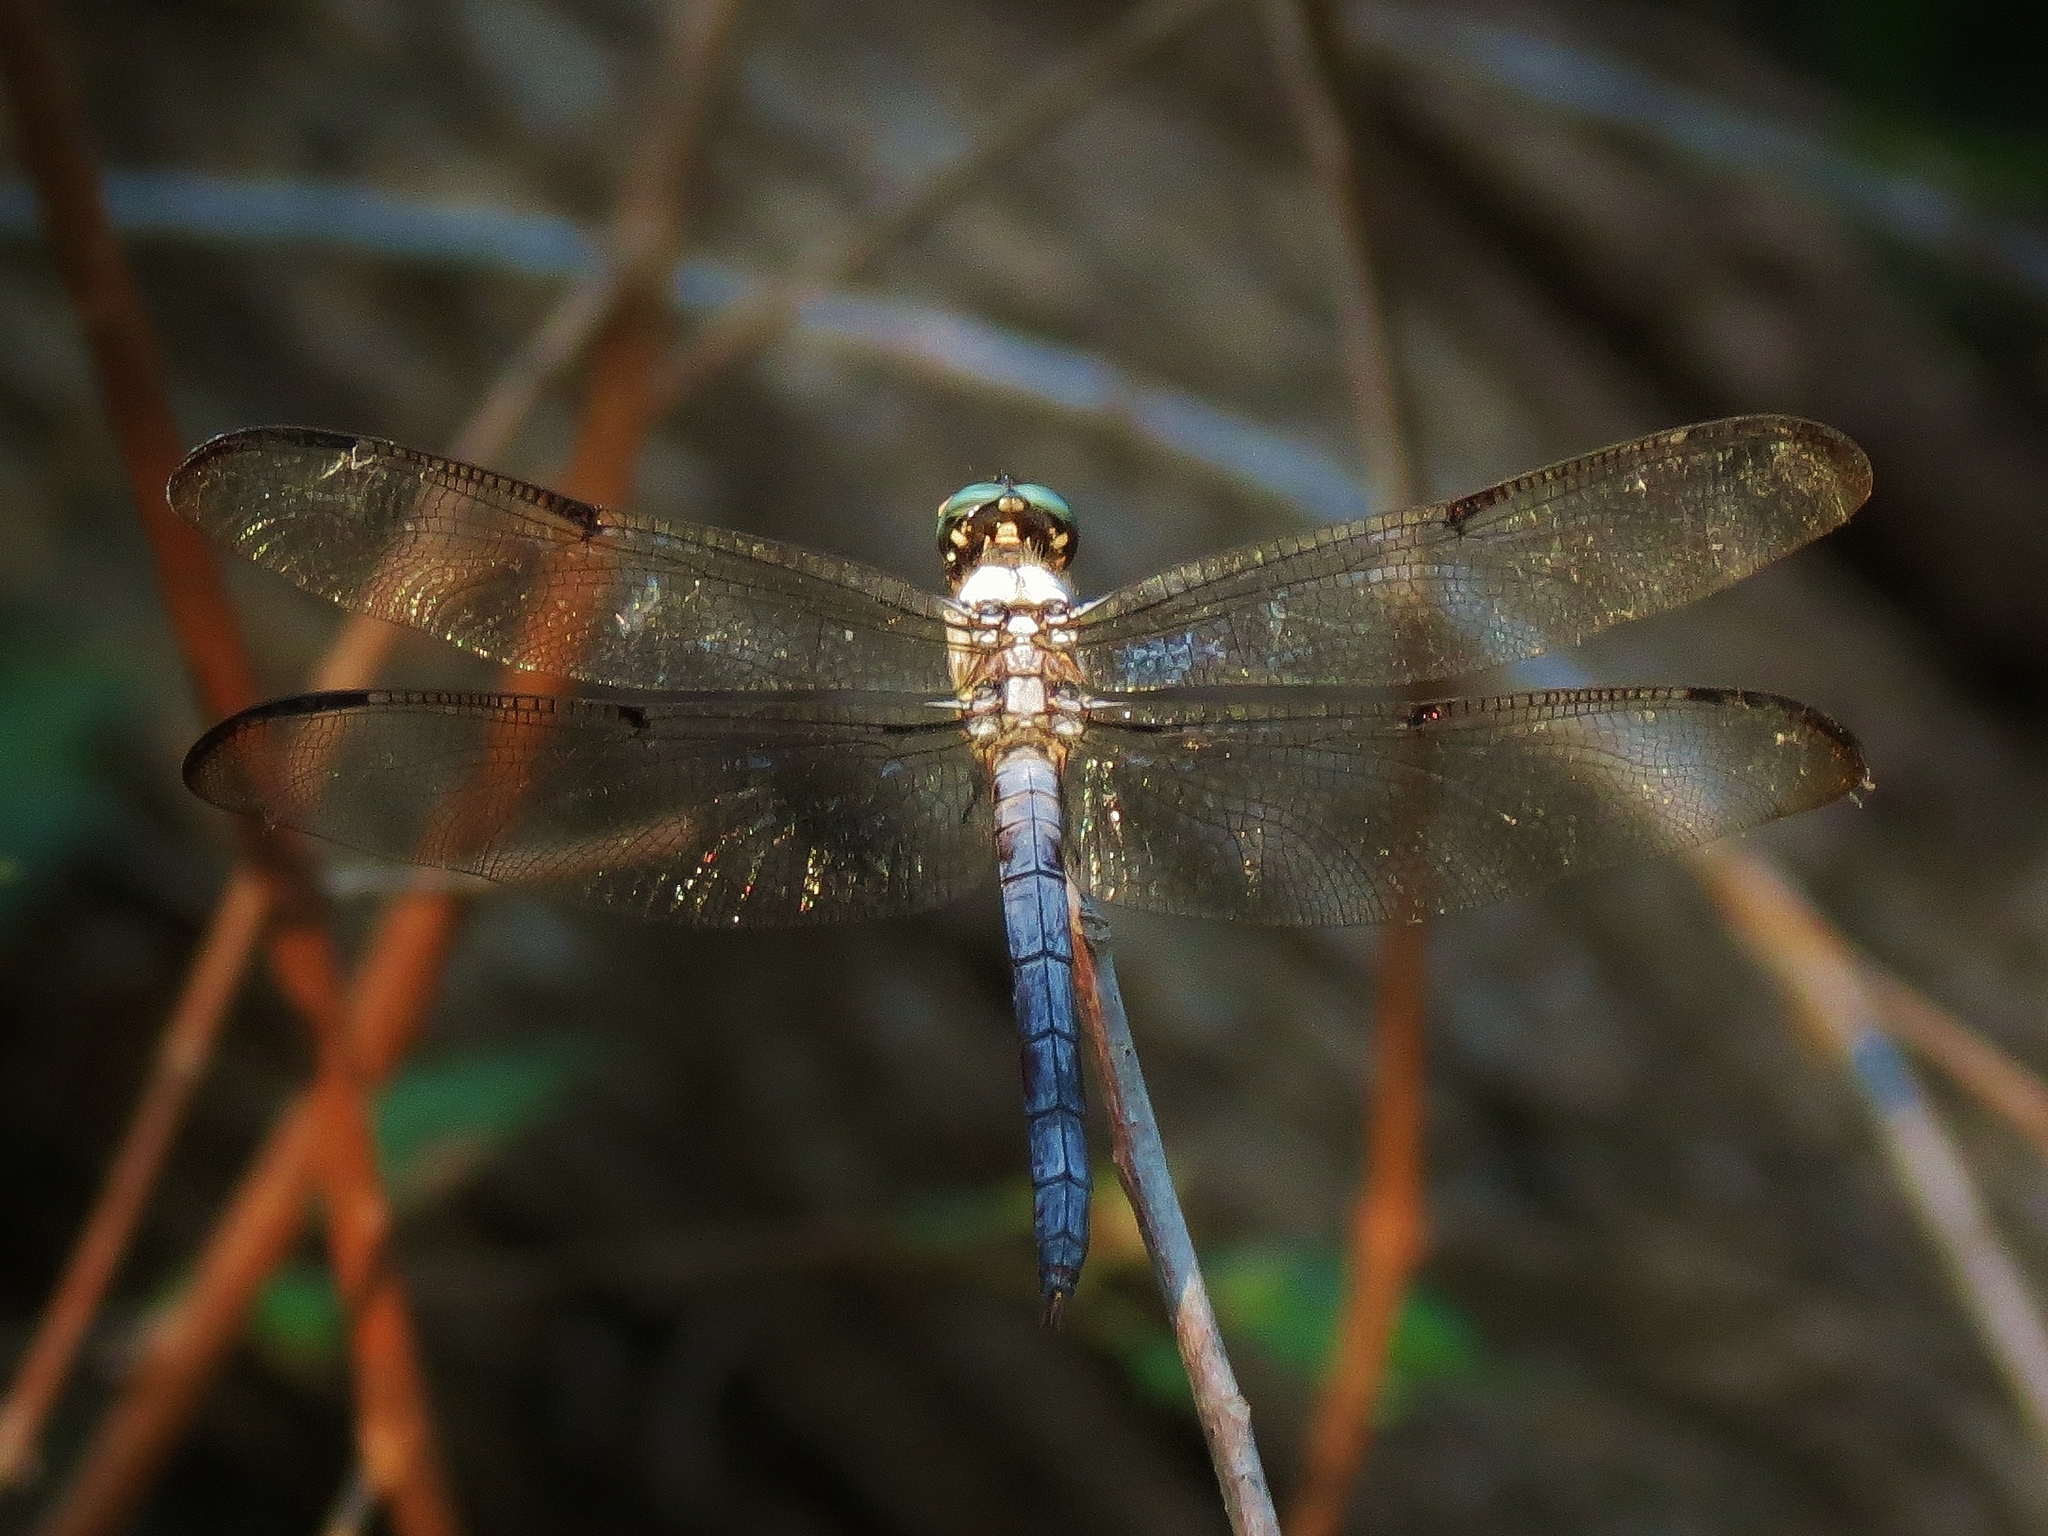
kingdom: Animalia
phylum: Arthropoda
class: Insecta
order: Odonata
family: Libellulidae
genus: Libellula
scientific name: Libellula vibrans
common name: Great blue skimmer
